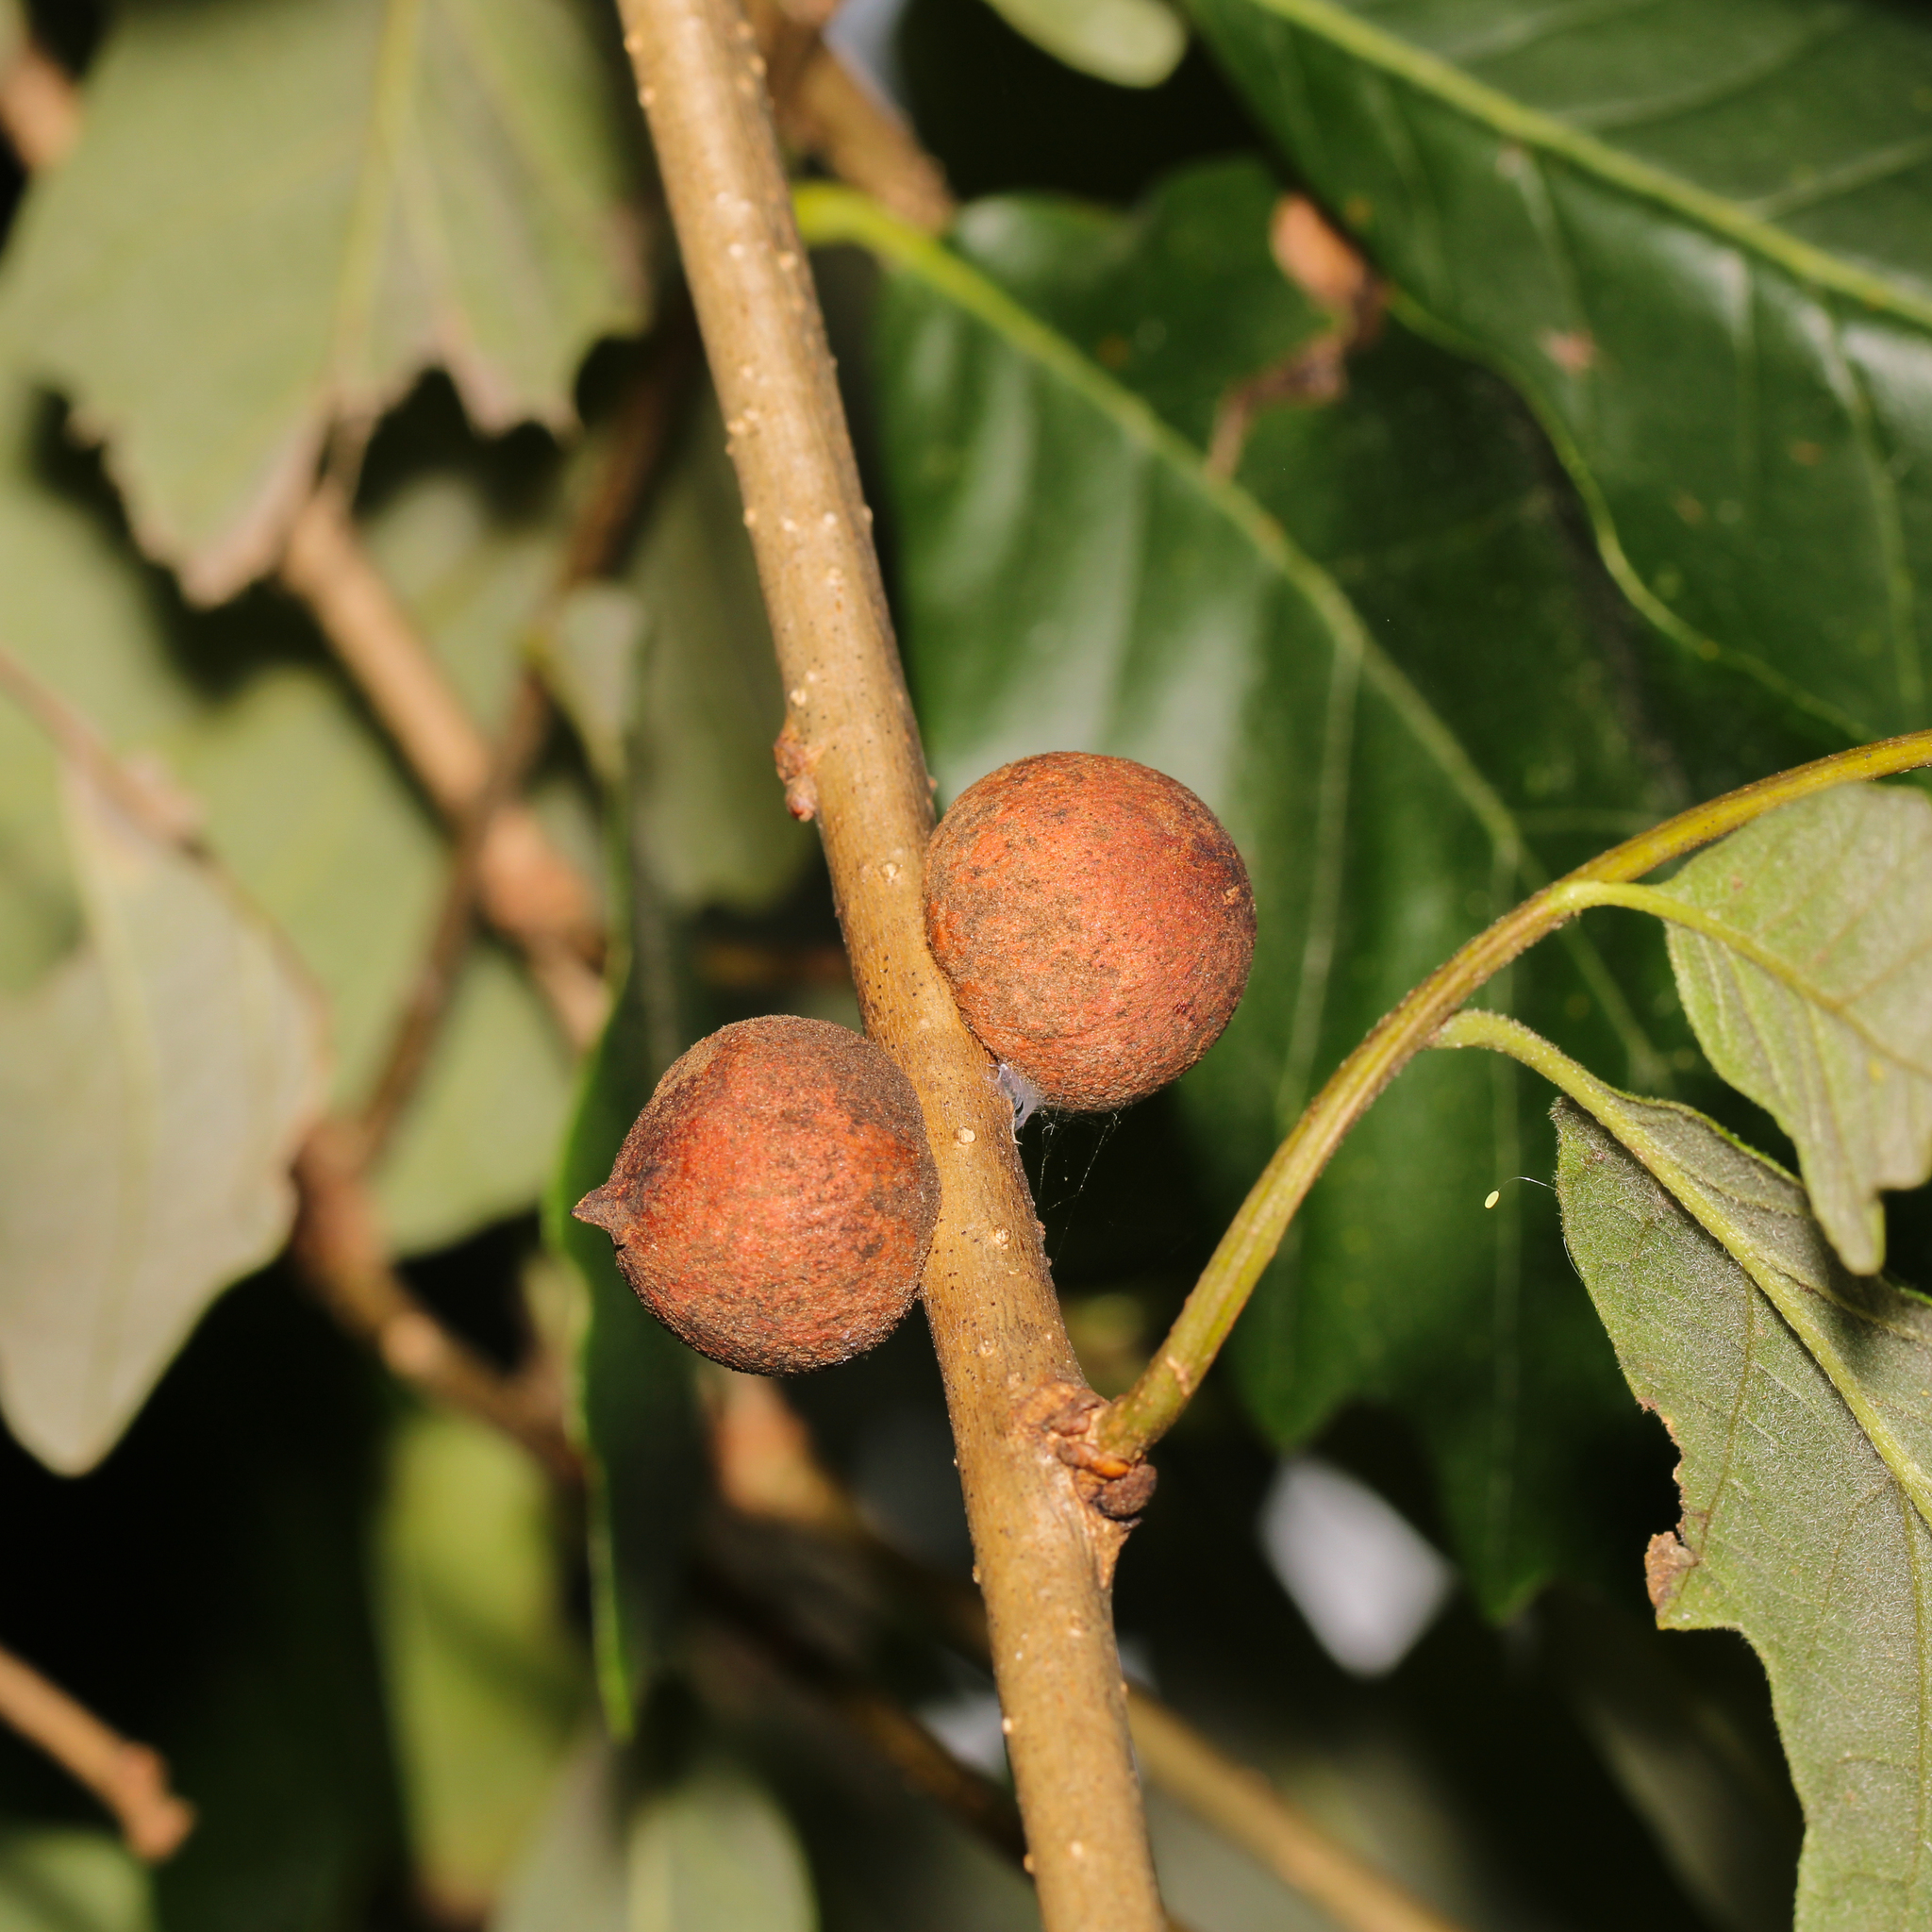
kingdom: Animalia
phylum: Arthropoda
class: Insecta
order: Hymenoptera
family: Cynipidae
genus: Disholcaspis
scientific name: Disholcaspis
